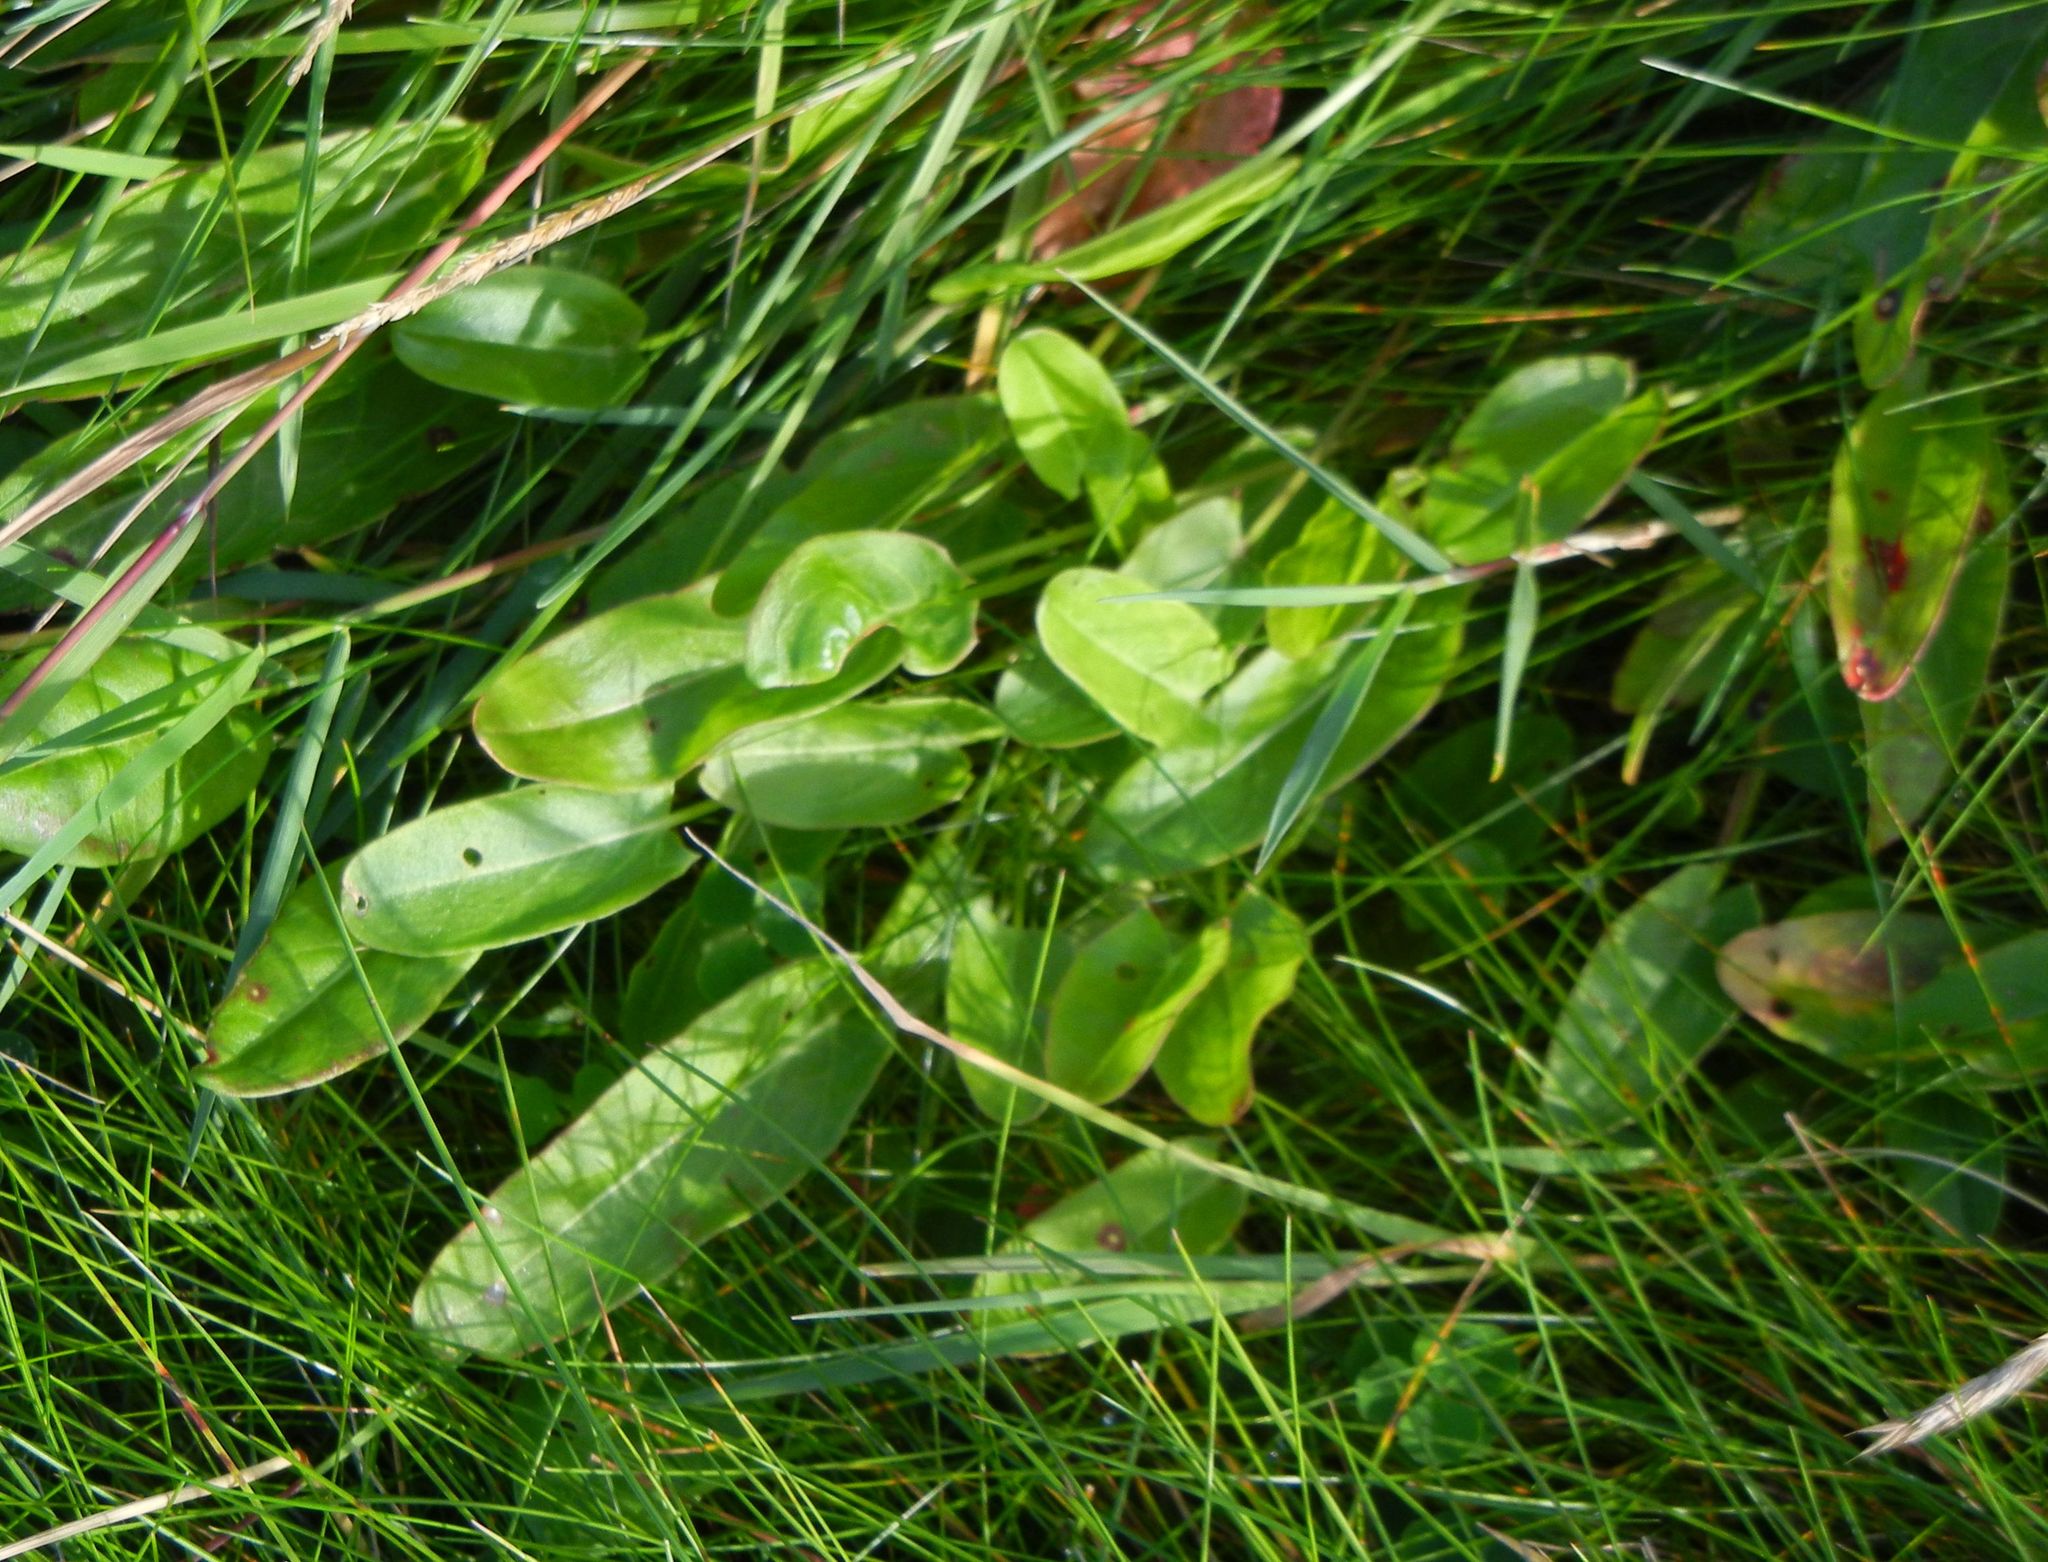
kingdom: Plantae
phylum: Tracheophyta
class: Magnoliopsida
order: Caryophyllales
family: Polygonaceae
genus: Rumex
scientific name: Rumex acetosa
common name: Garden sorrel
